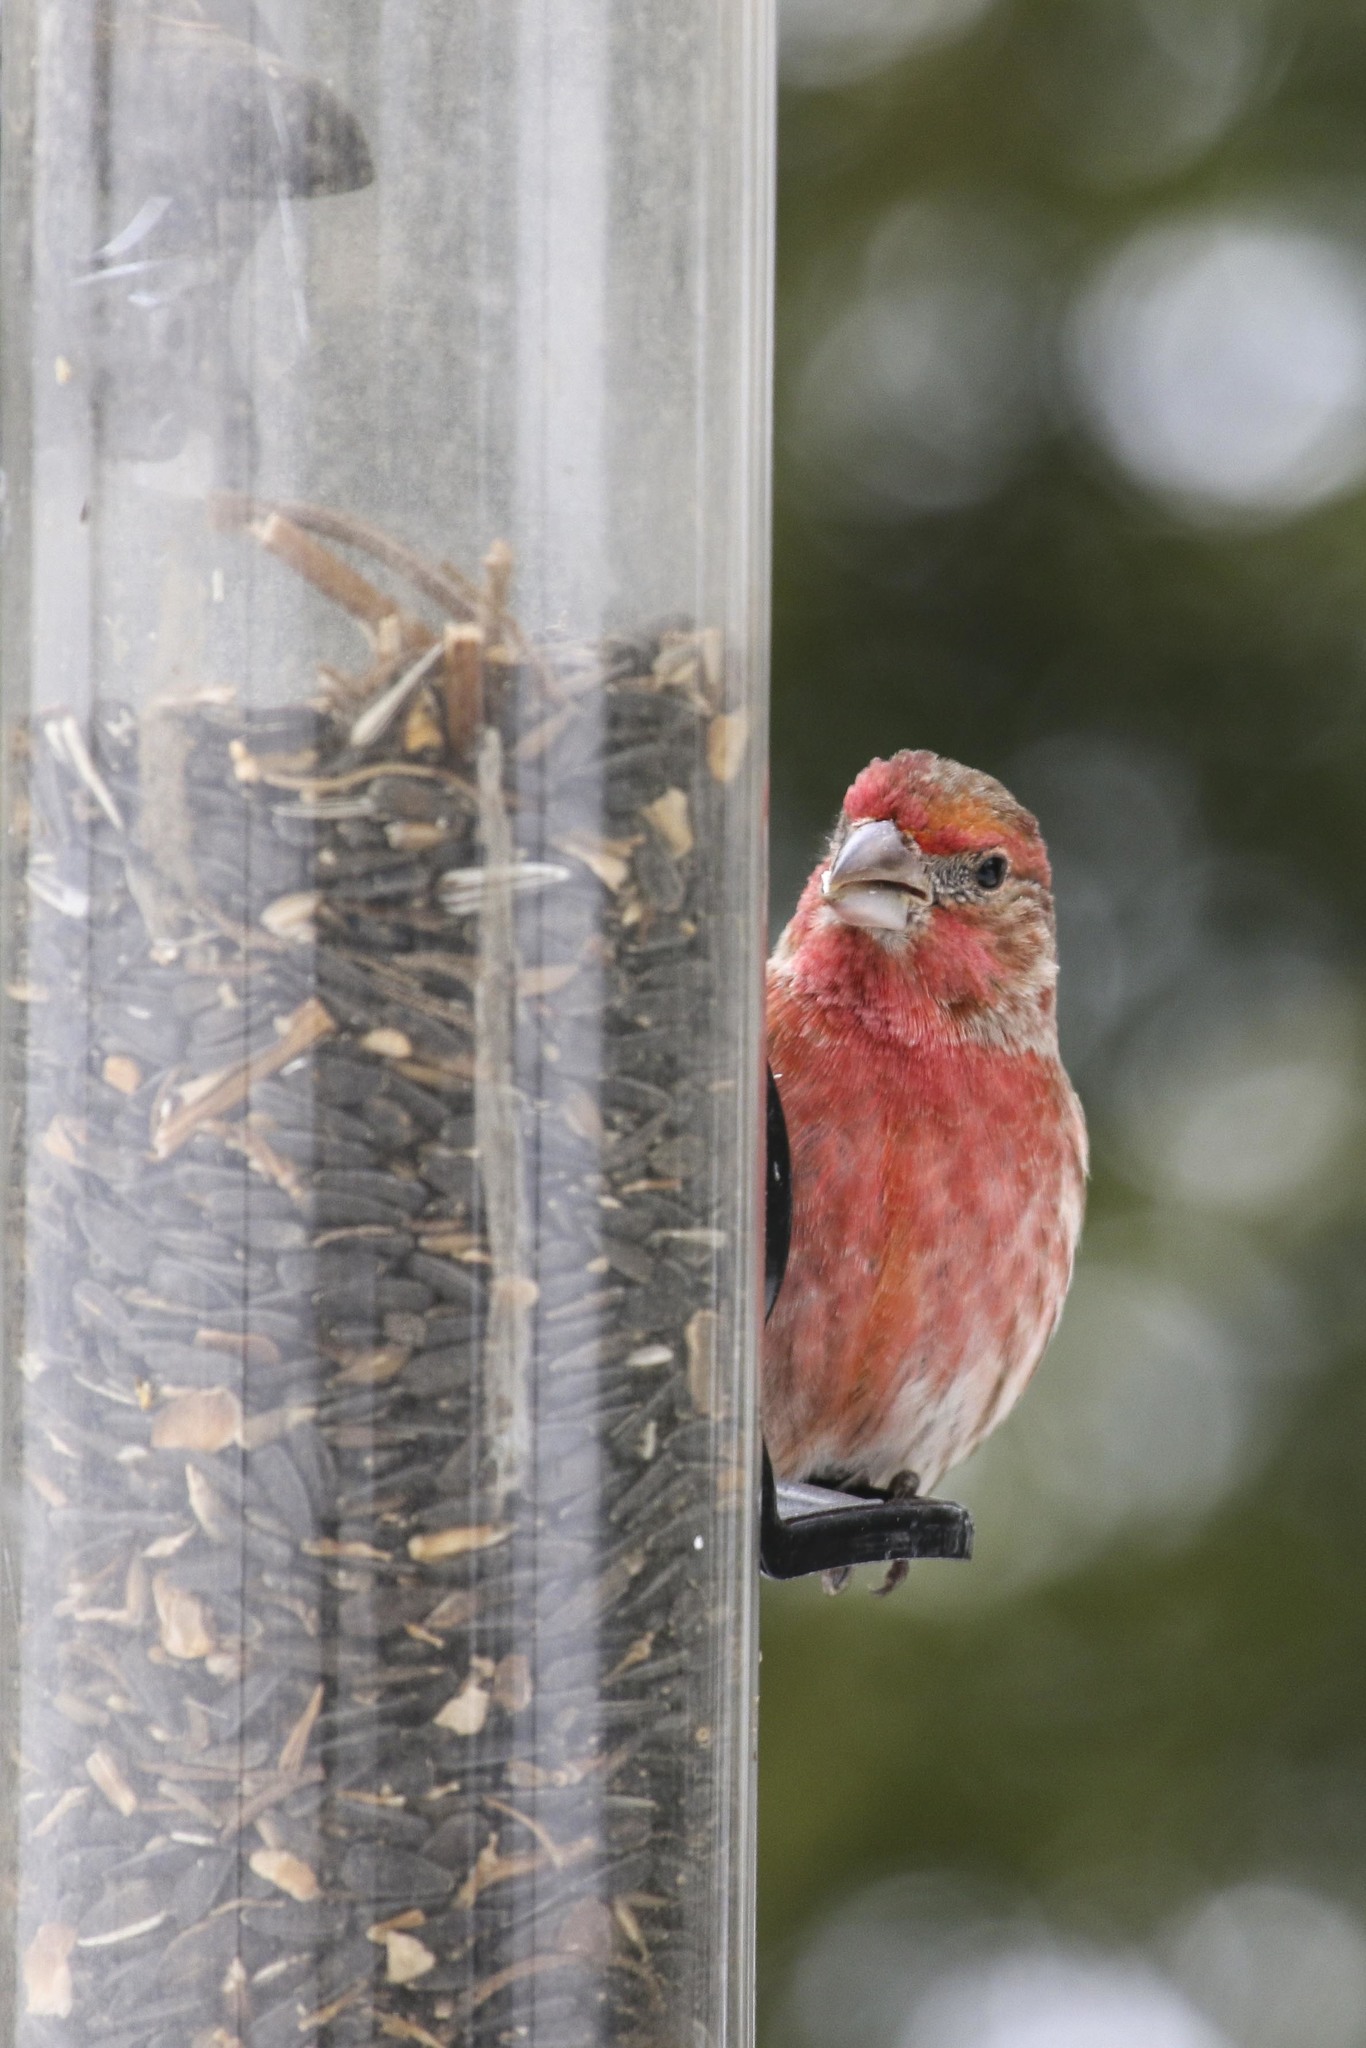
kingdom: Animalia
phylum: Chordata
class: Aves
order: Passeriformes
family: Fringillidae
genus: Haemorhous
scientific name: Haemorhous mexicanus
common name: House finch
